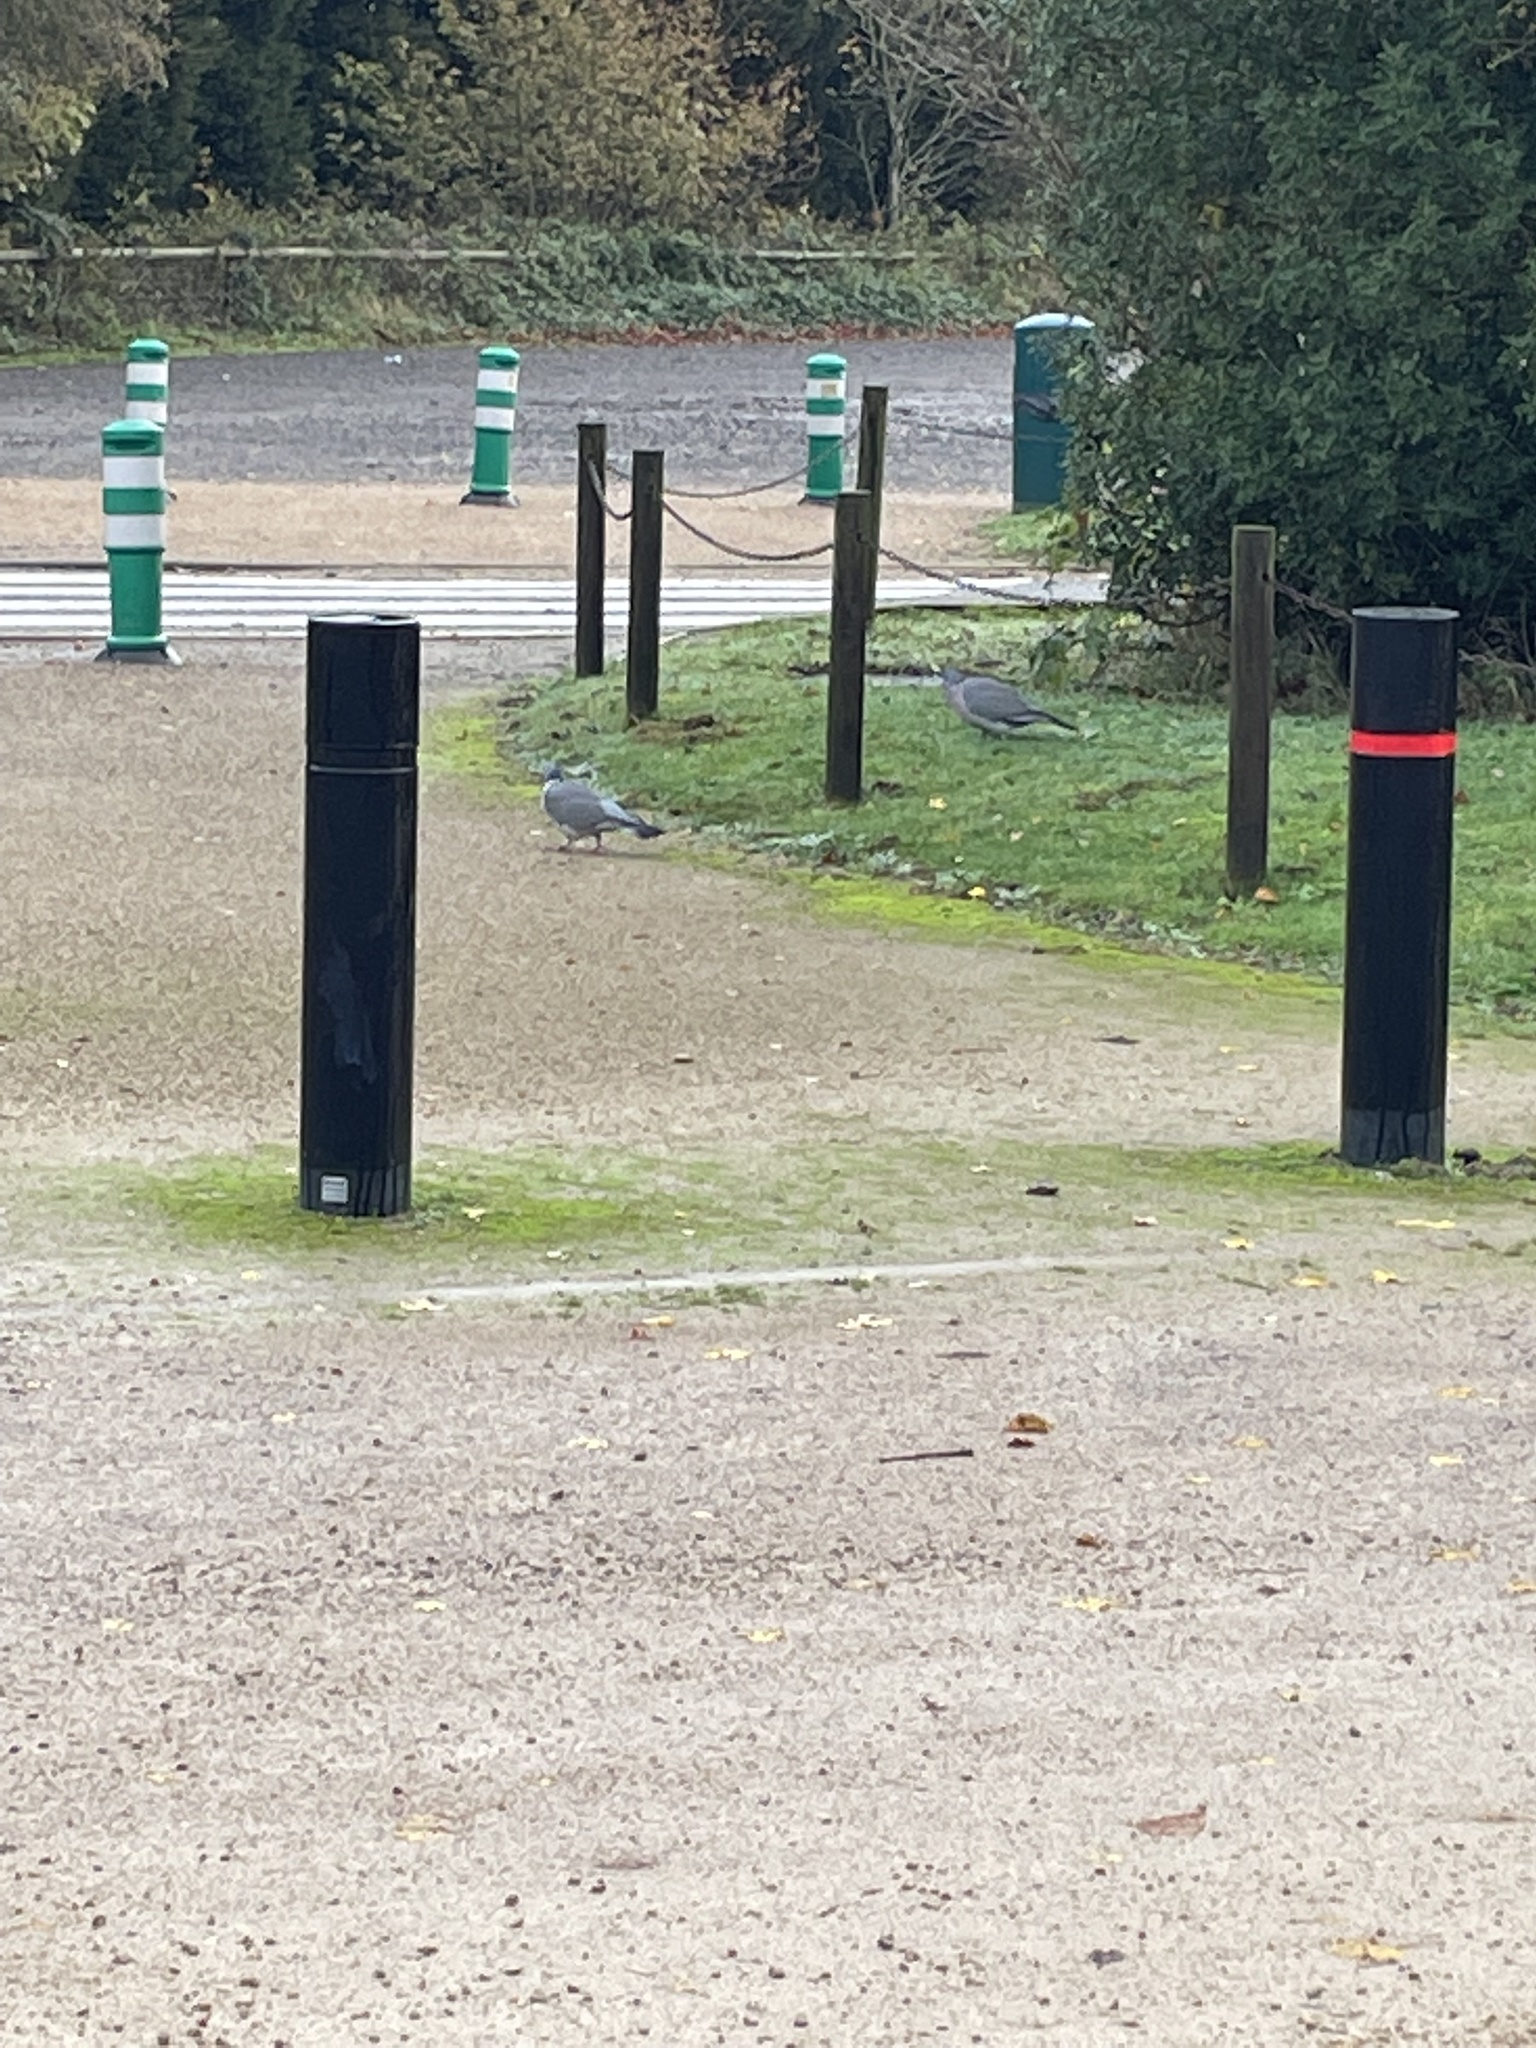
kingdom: Animalia
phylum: Chordata
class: Aves
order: Columbiformes
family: Columbidae
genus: Columba
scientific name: Columba palumbus
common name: Common wood pigeon
